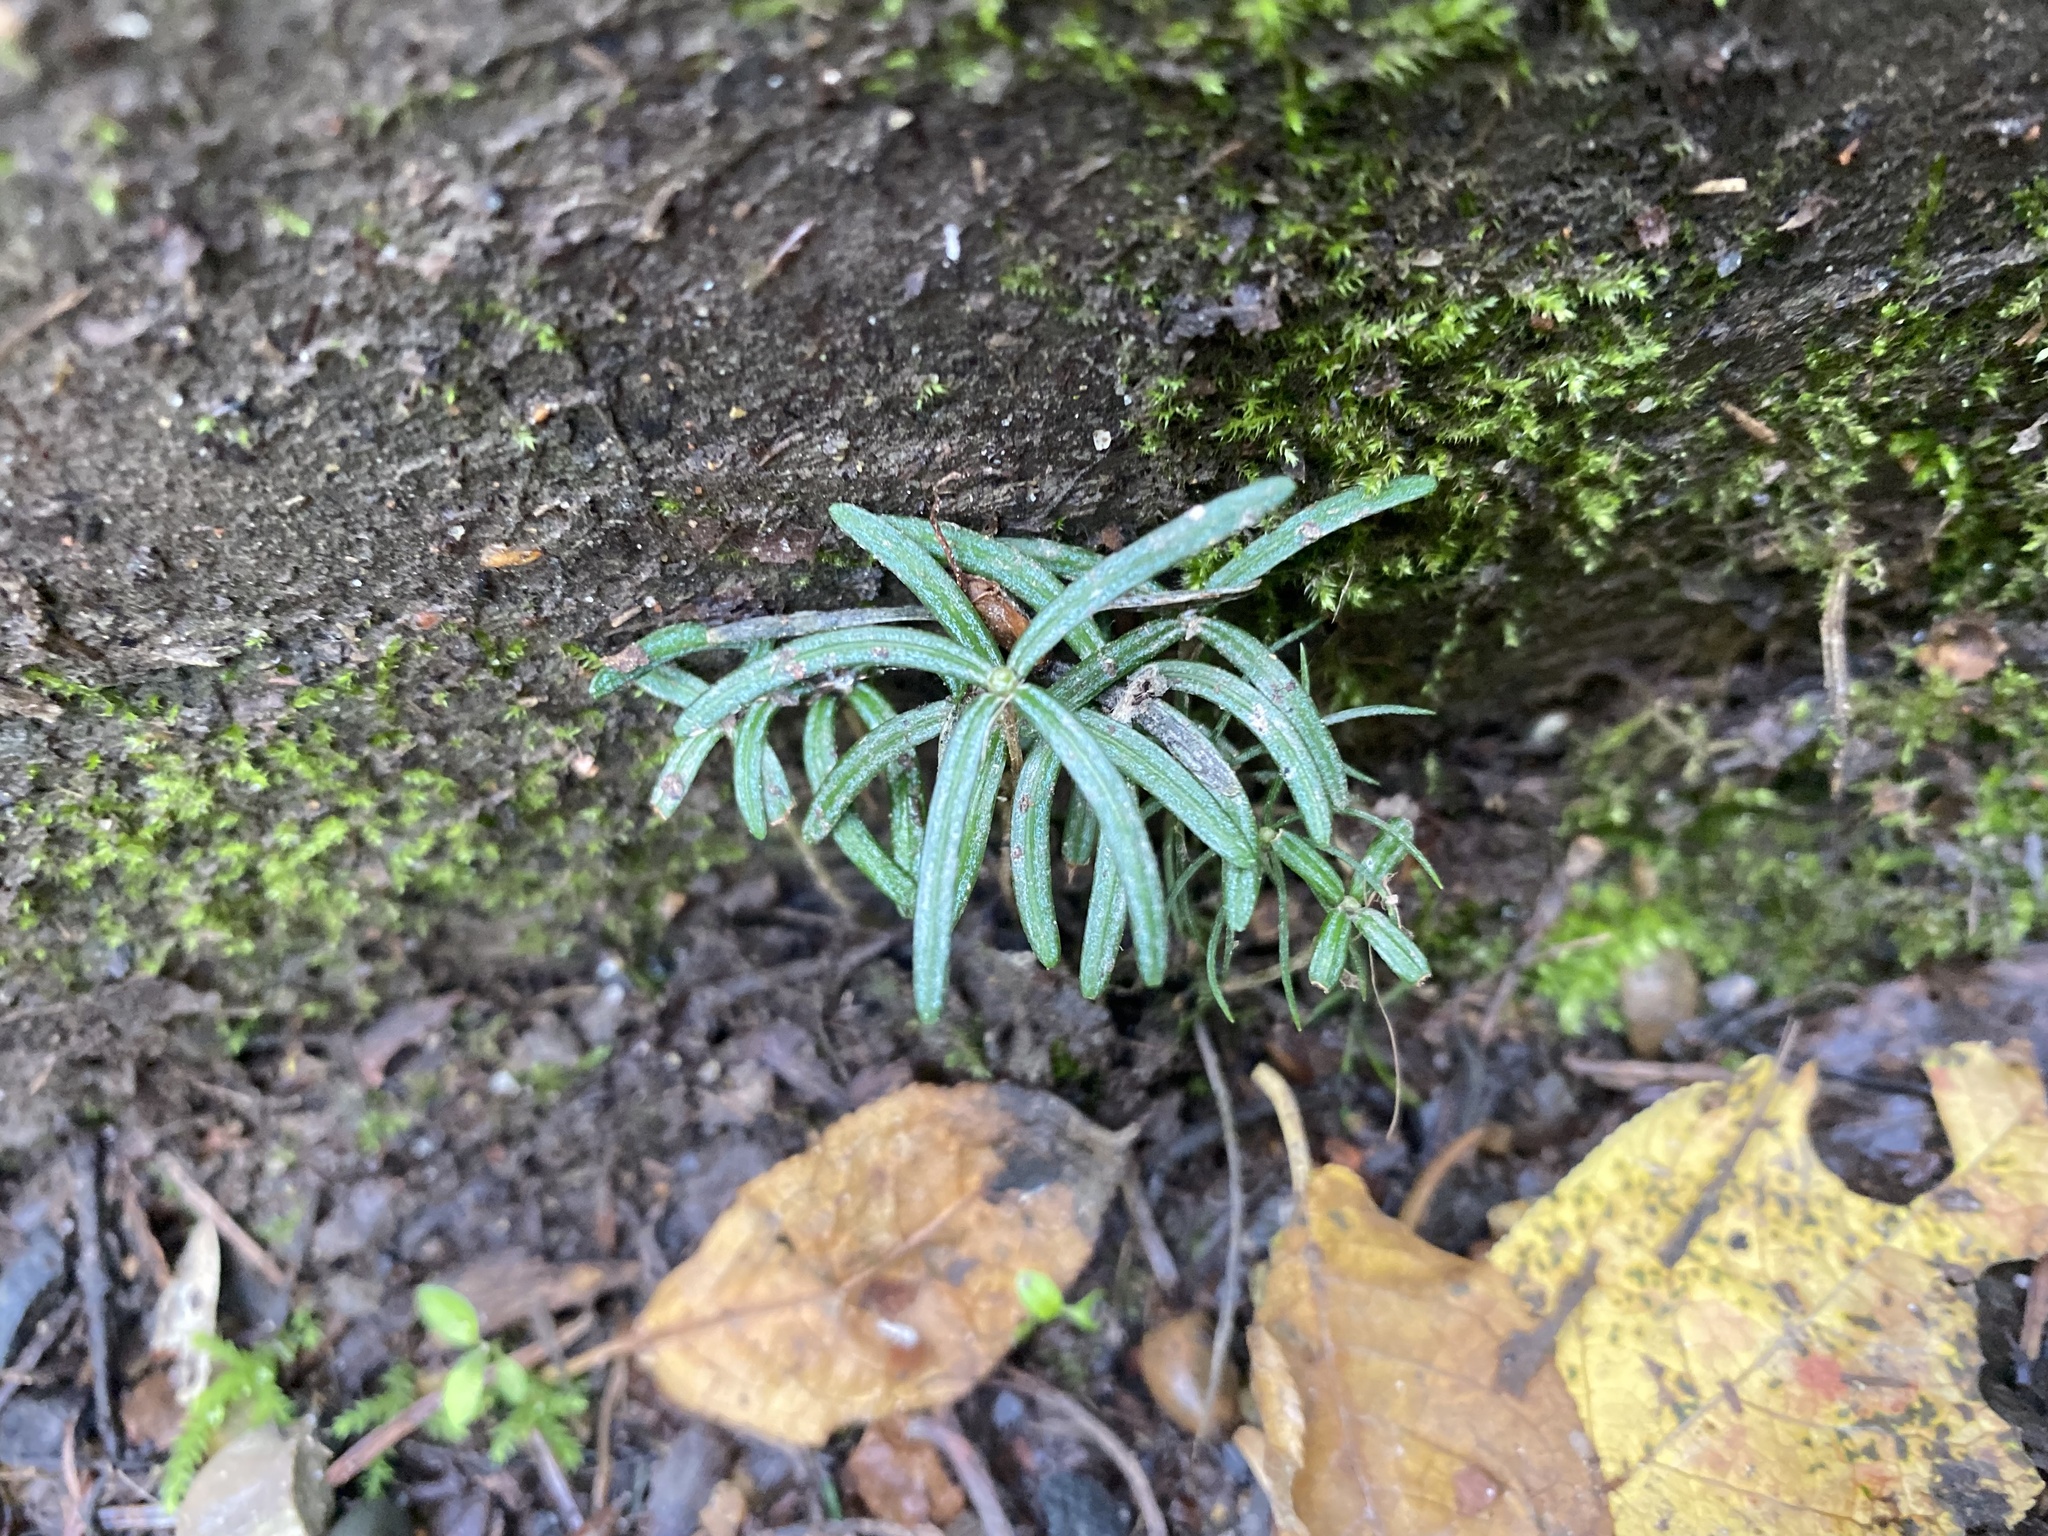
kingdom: Plantae
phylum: Tracheophyta
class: Magnoliopsida
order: Ericales
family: Ericaceae
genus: Rhododendron
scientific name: Rhododendron tomentosum
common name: Marsh labrador tea
